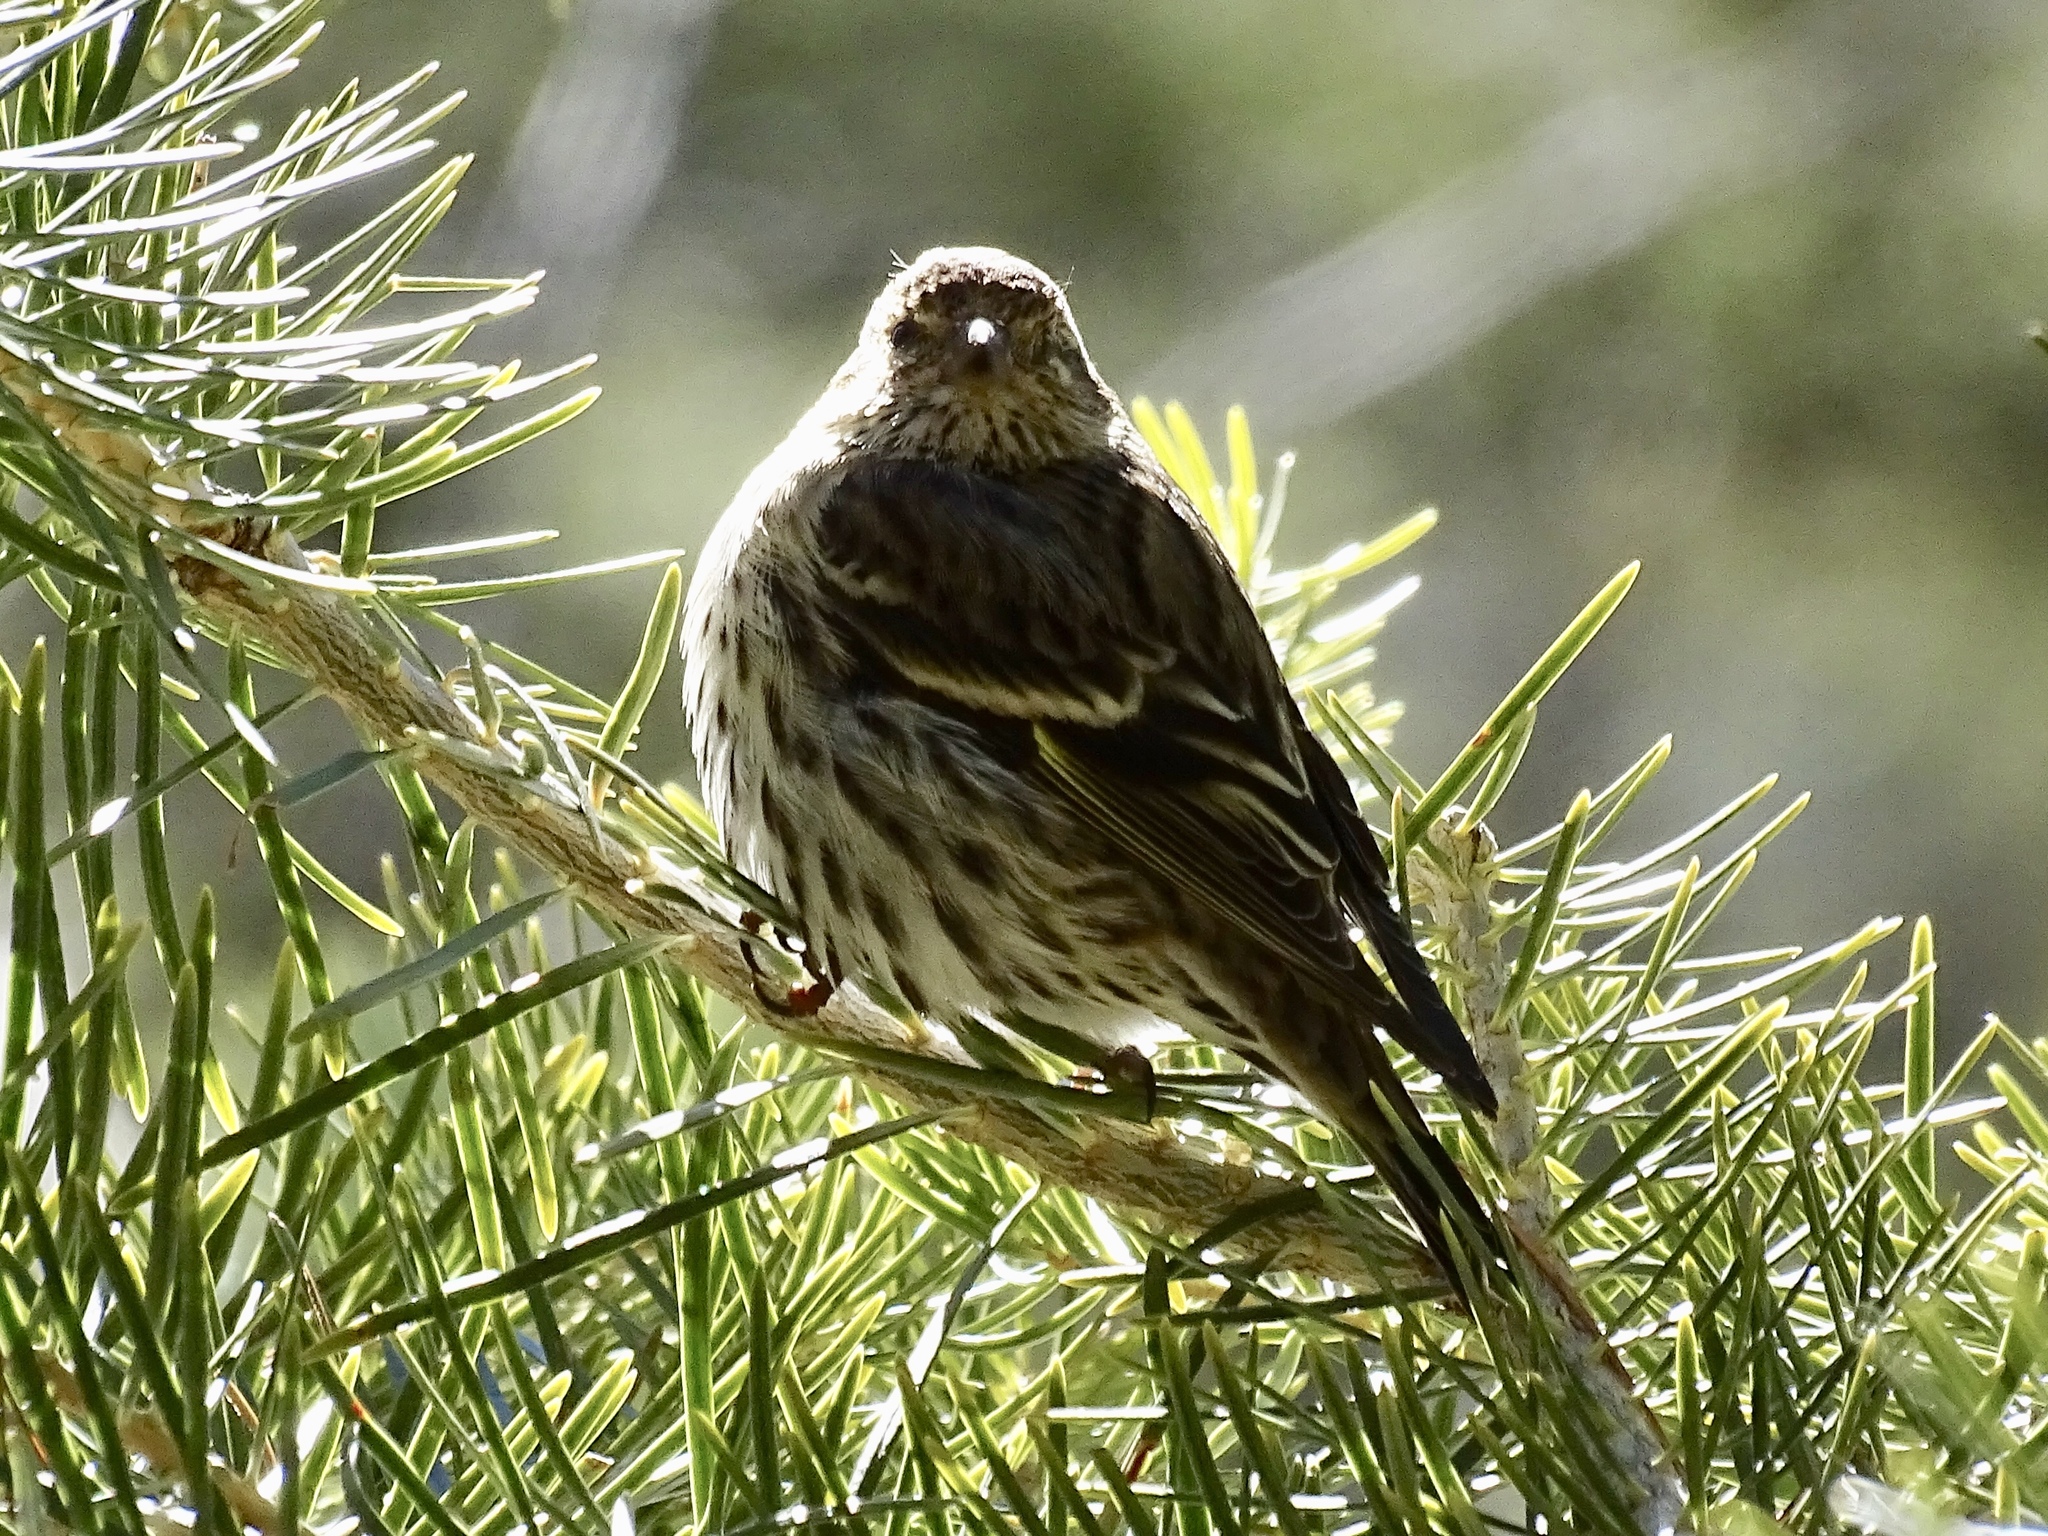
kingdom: Animalia
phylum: Chordata
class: Aves
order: Passeriformes
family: Fringillidae
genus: Spinus
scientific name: Spinus pinus
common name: Pine siskin
